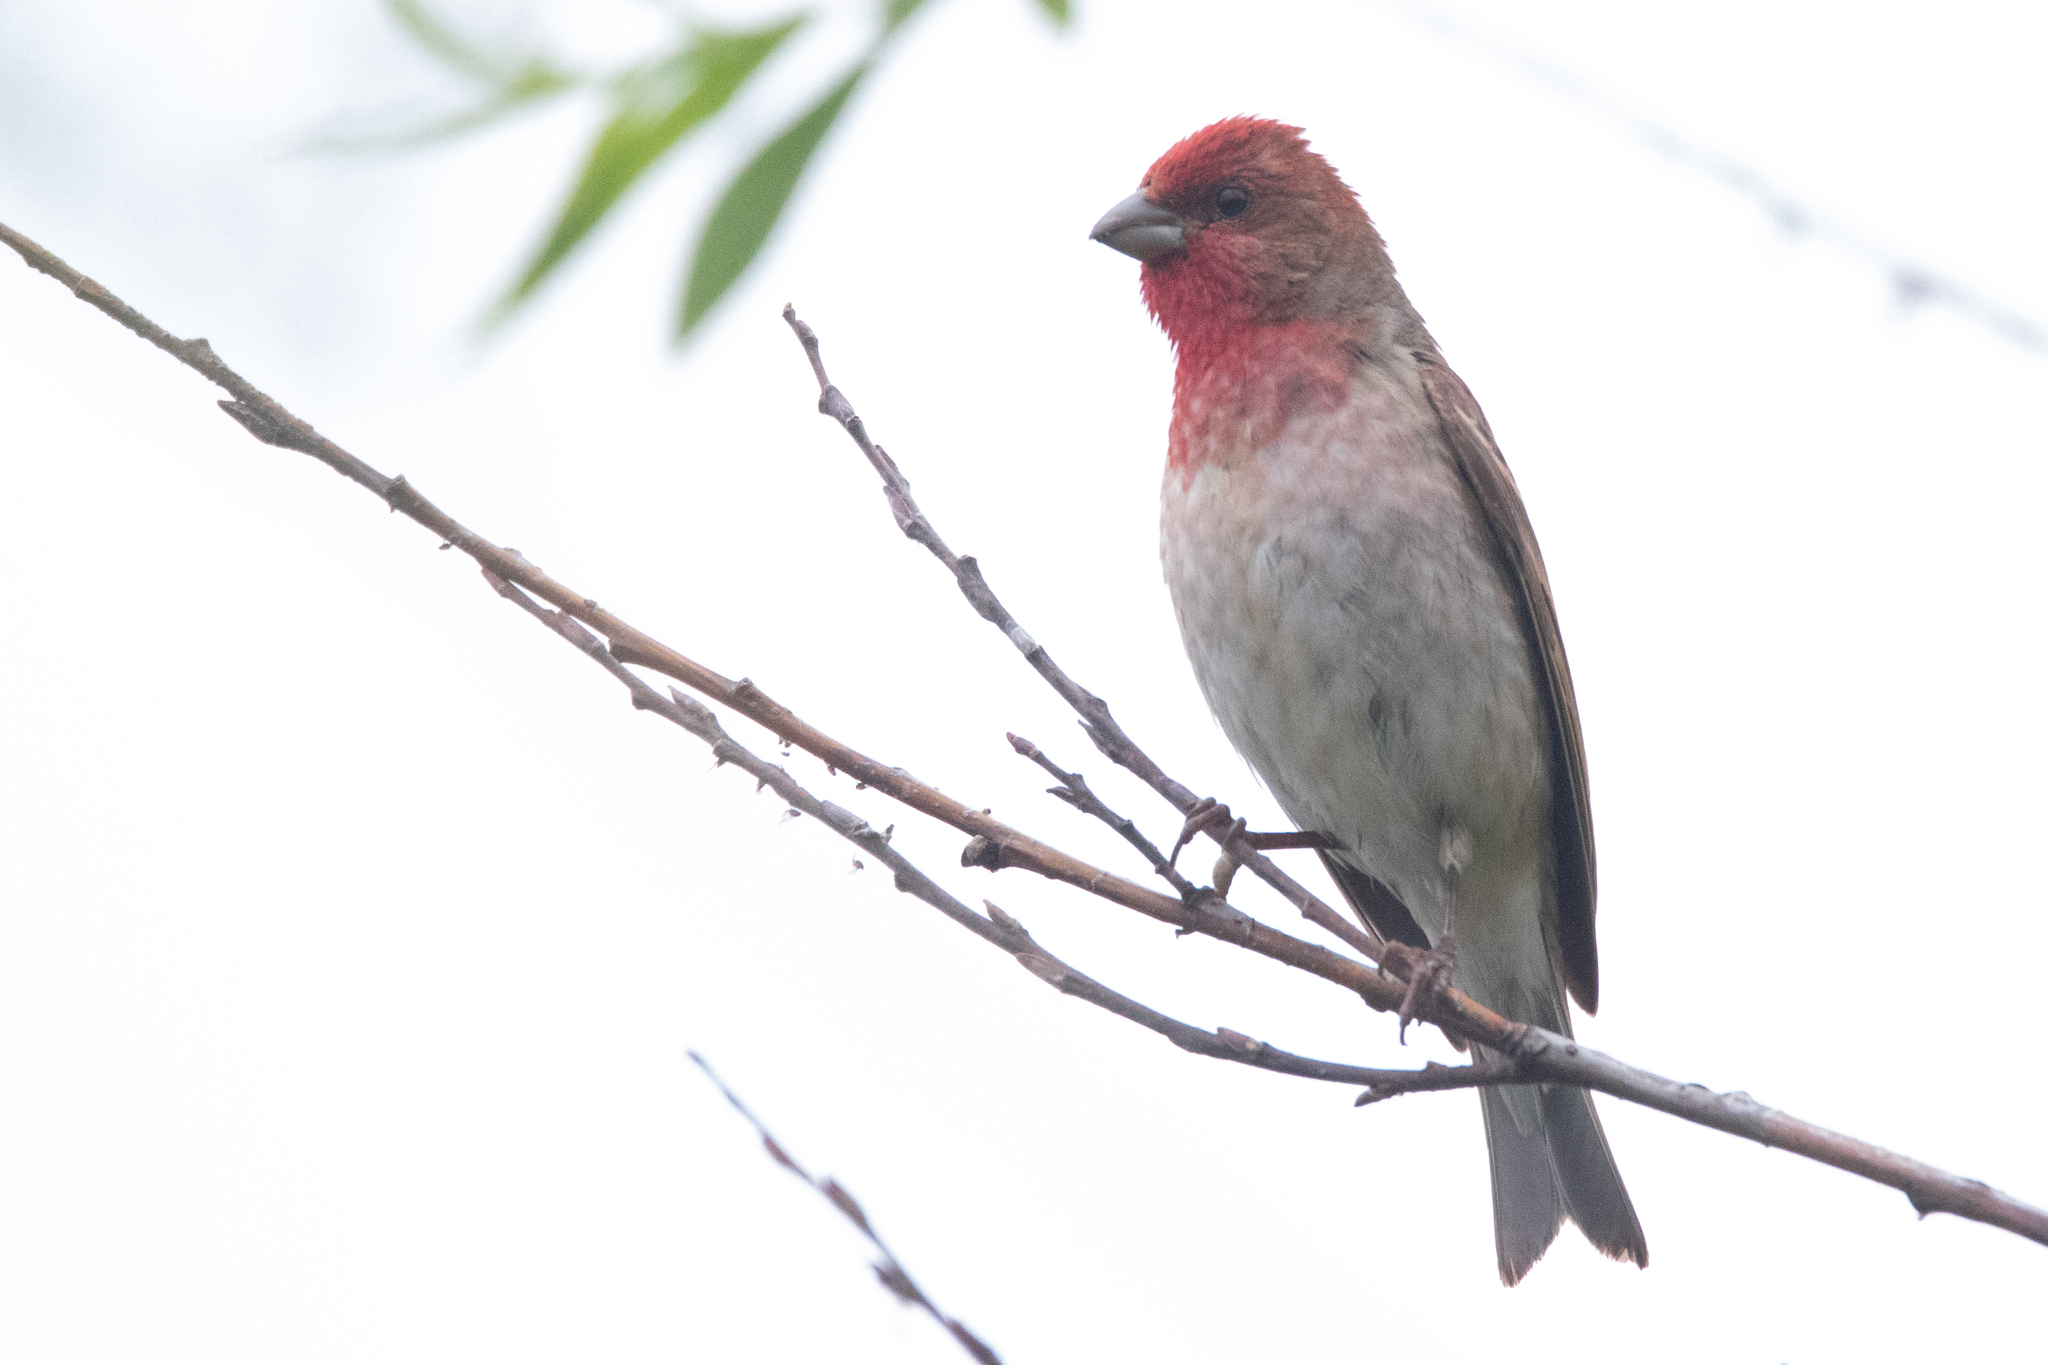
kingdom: Animalia
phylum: Chordata
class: Aves
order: Passeriformes
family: Fringillidae
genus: Carpodacus
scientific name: Carpodacus erythrinus
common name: Common rosefinch
